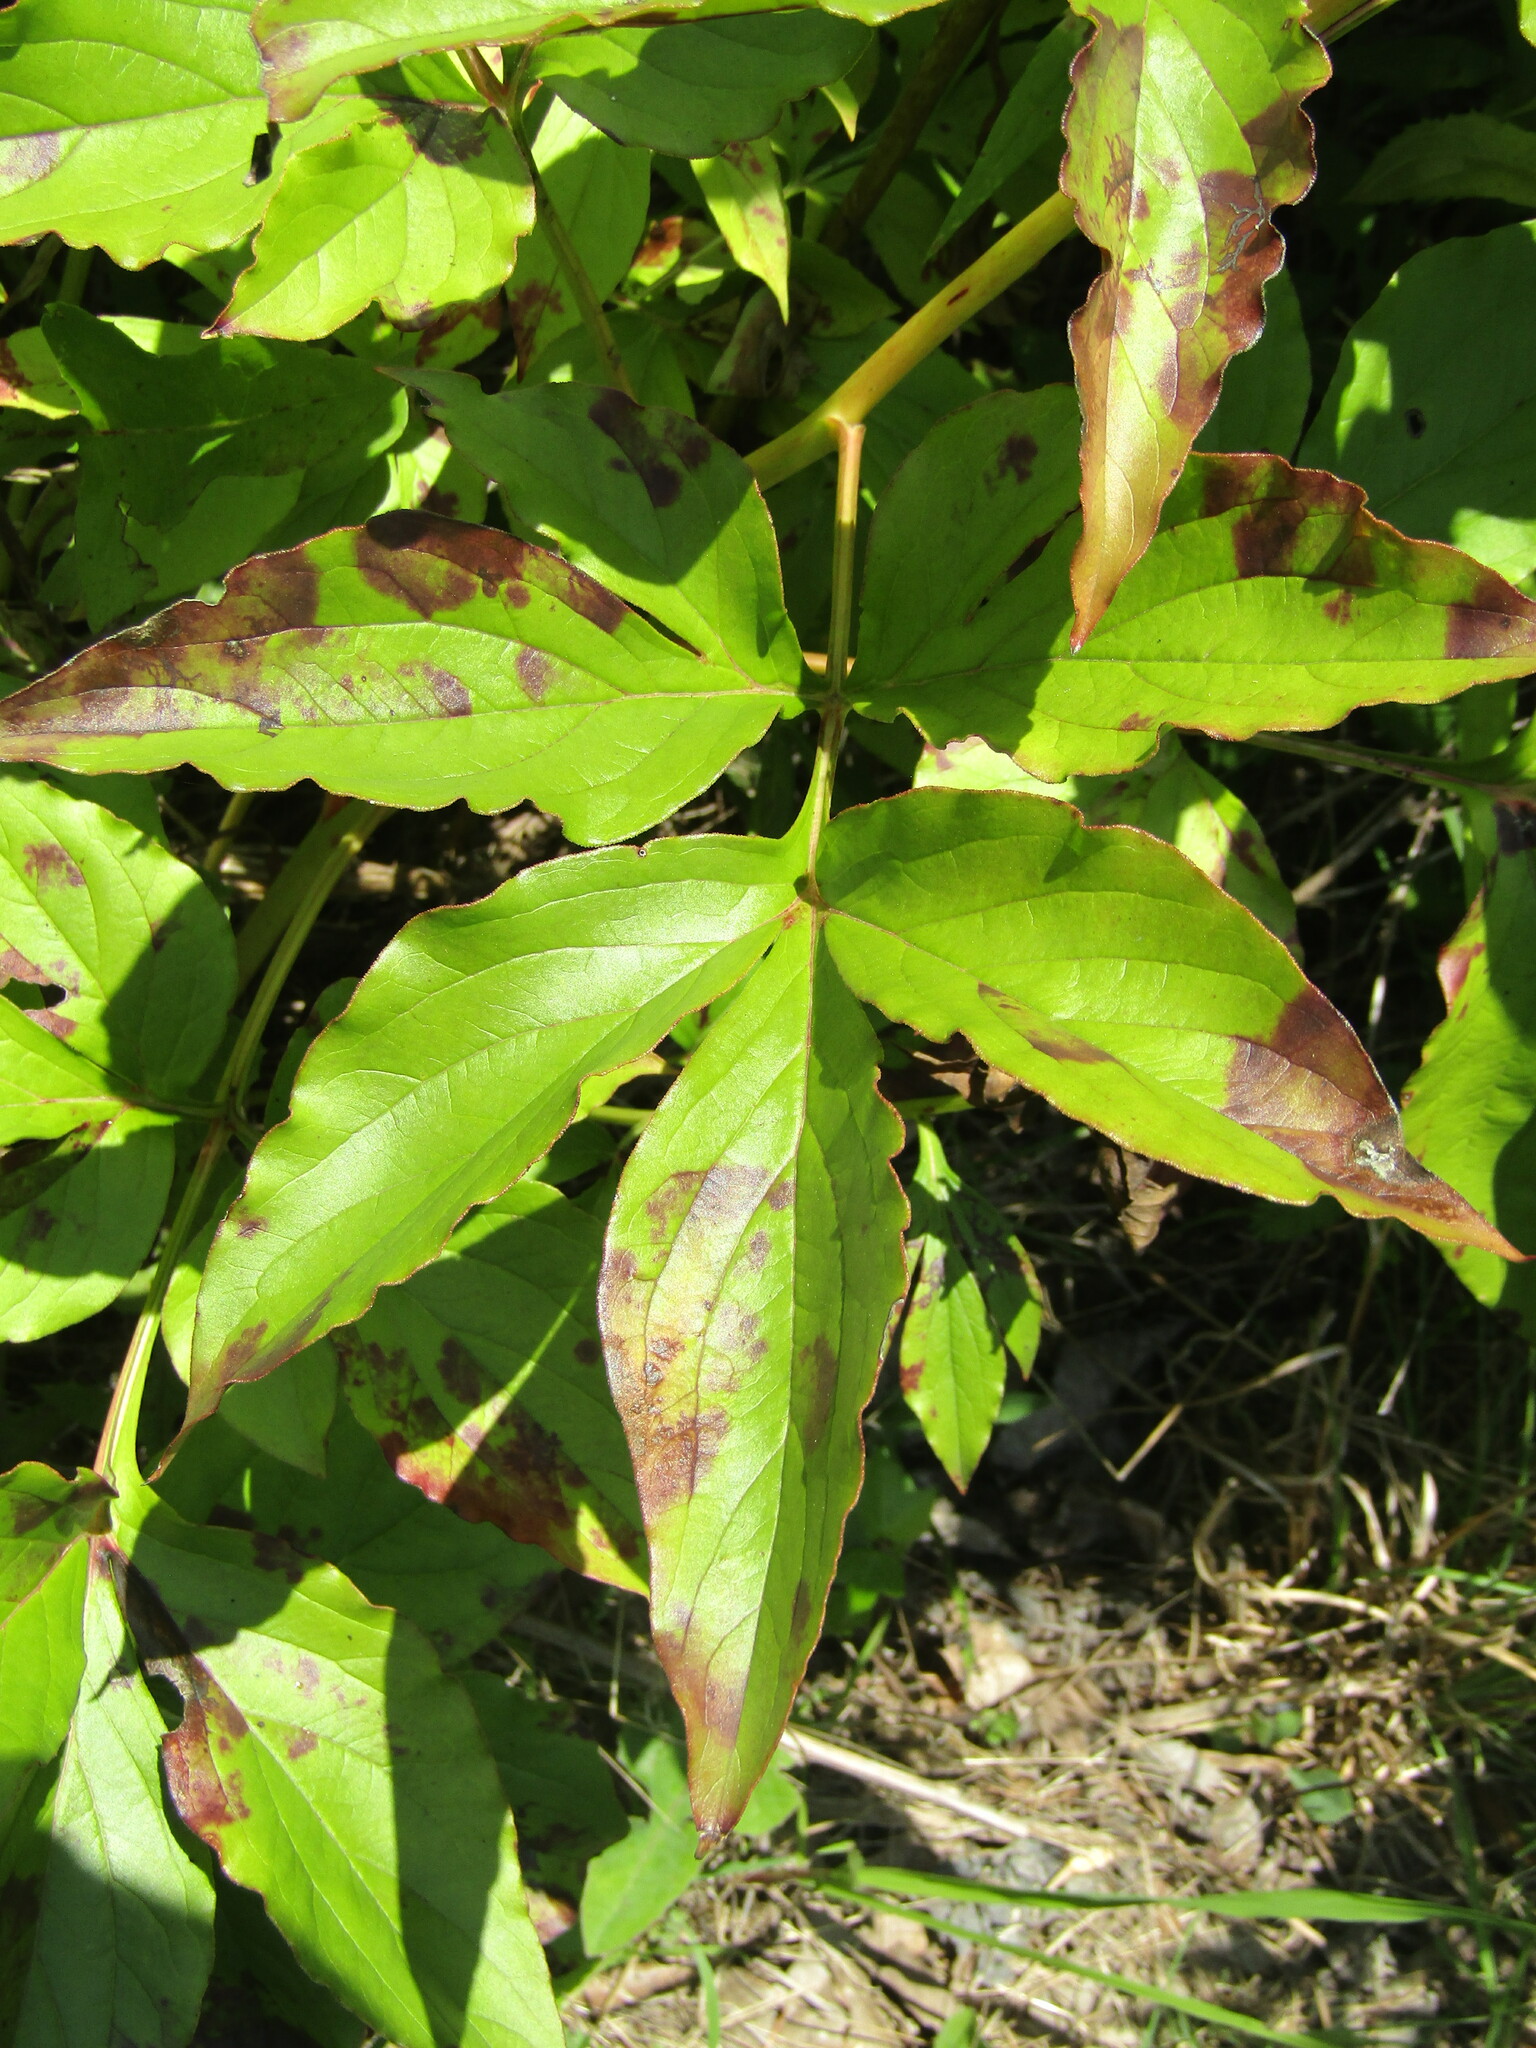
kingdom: Fungi
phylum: Ascomycota
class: Dothideomycetes
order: Capnodiales
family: Davidiellaceae
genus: Dichocladosporium
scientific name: Dichocladosporium chlorocephalum
